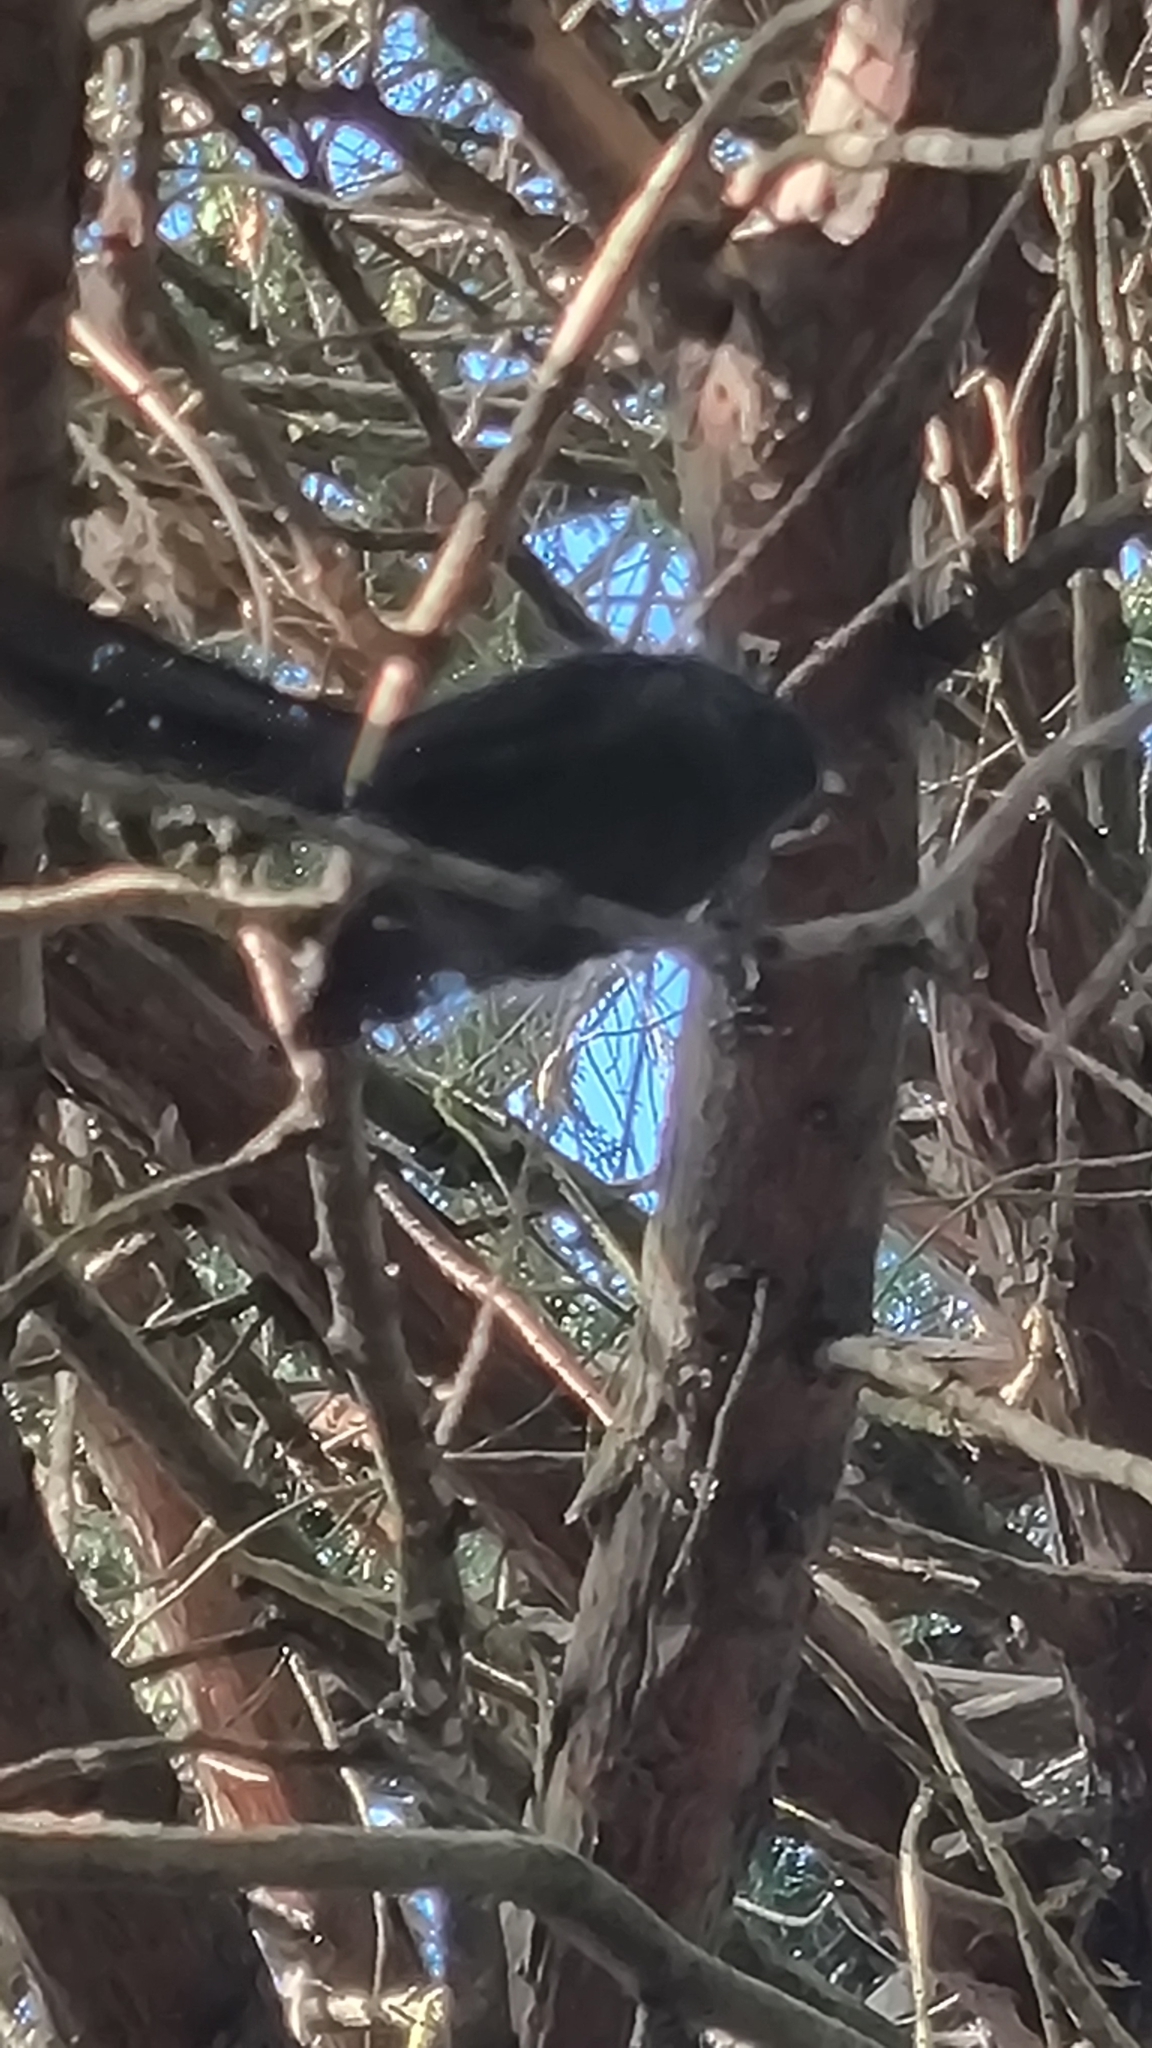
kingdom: Animalia
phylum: Chordata
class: Aves
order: Passeriformes
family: Rhipiduridae
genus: Rhipidura
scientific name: Rhipidura fuliginosa
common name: New zealand fantail
